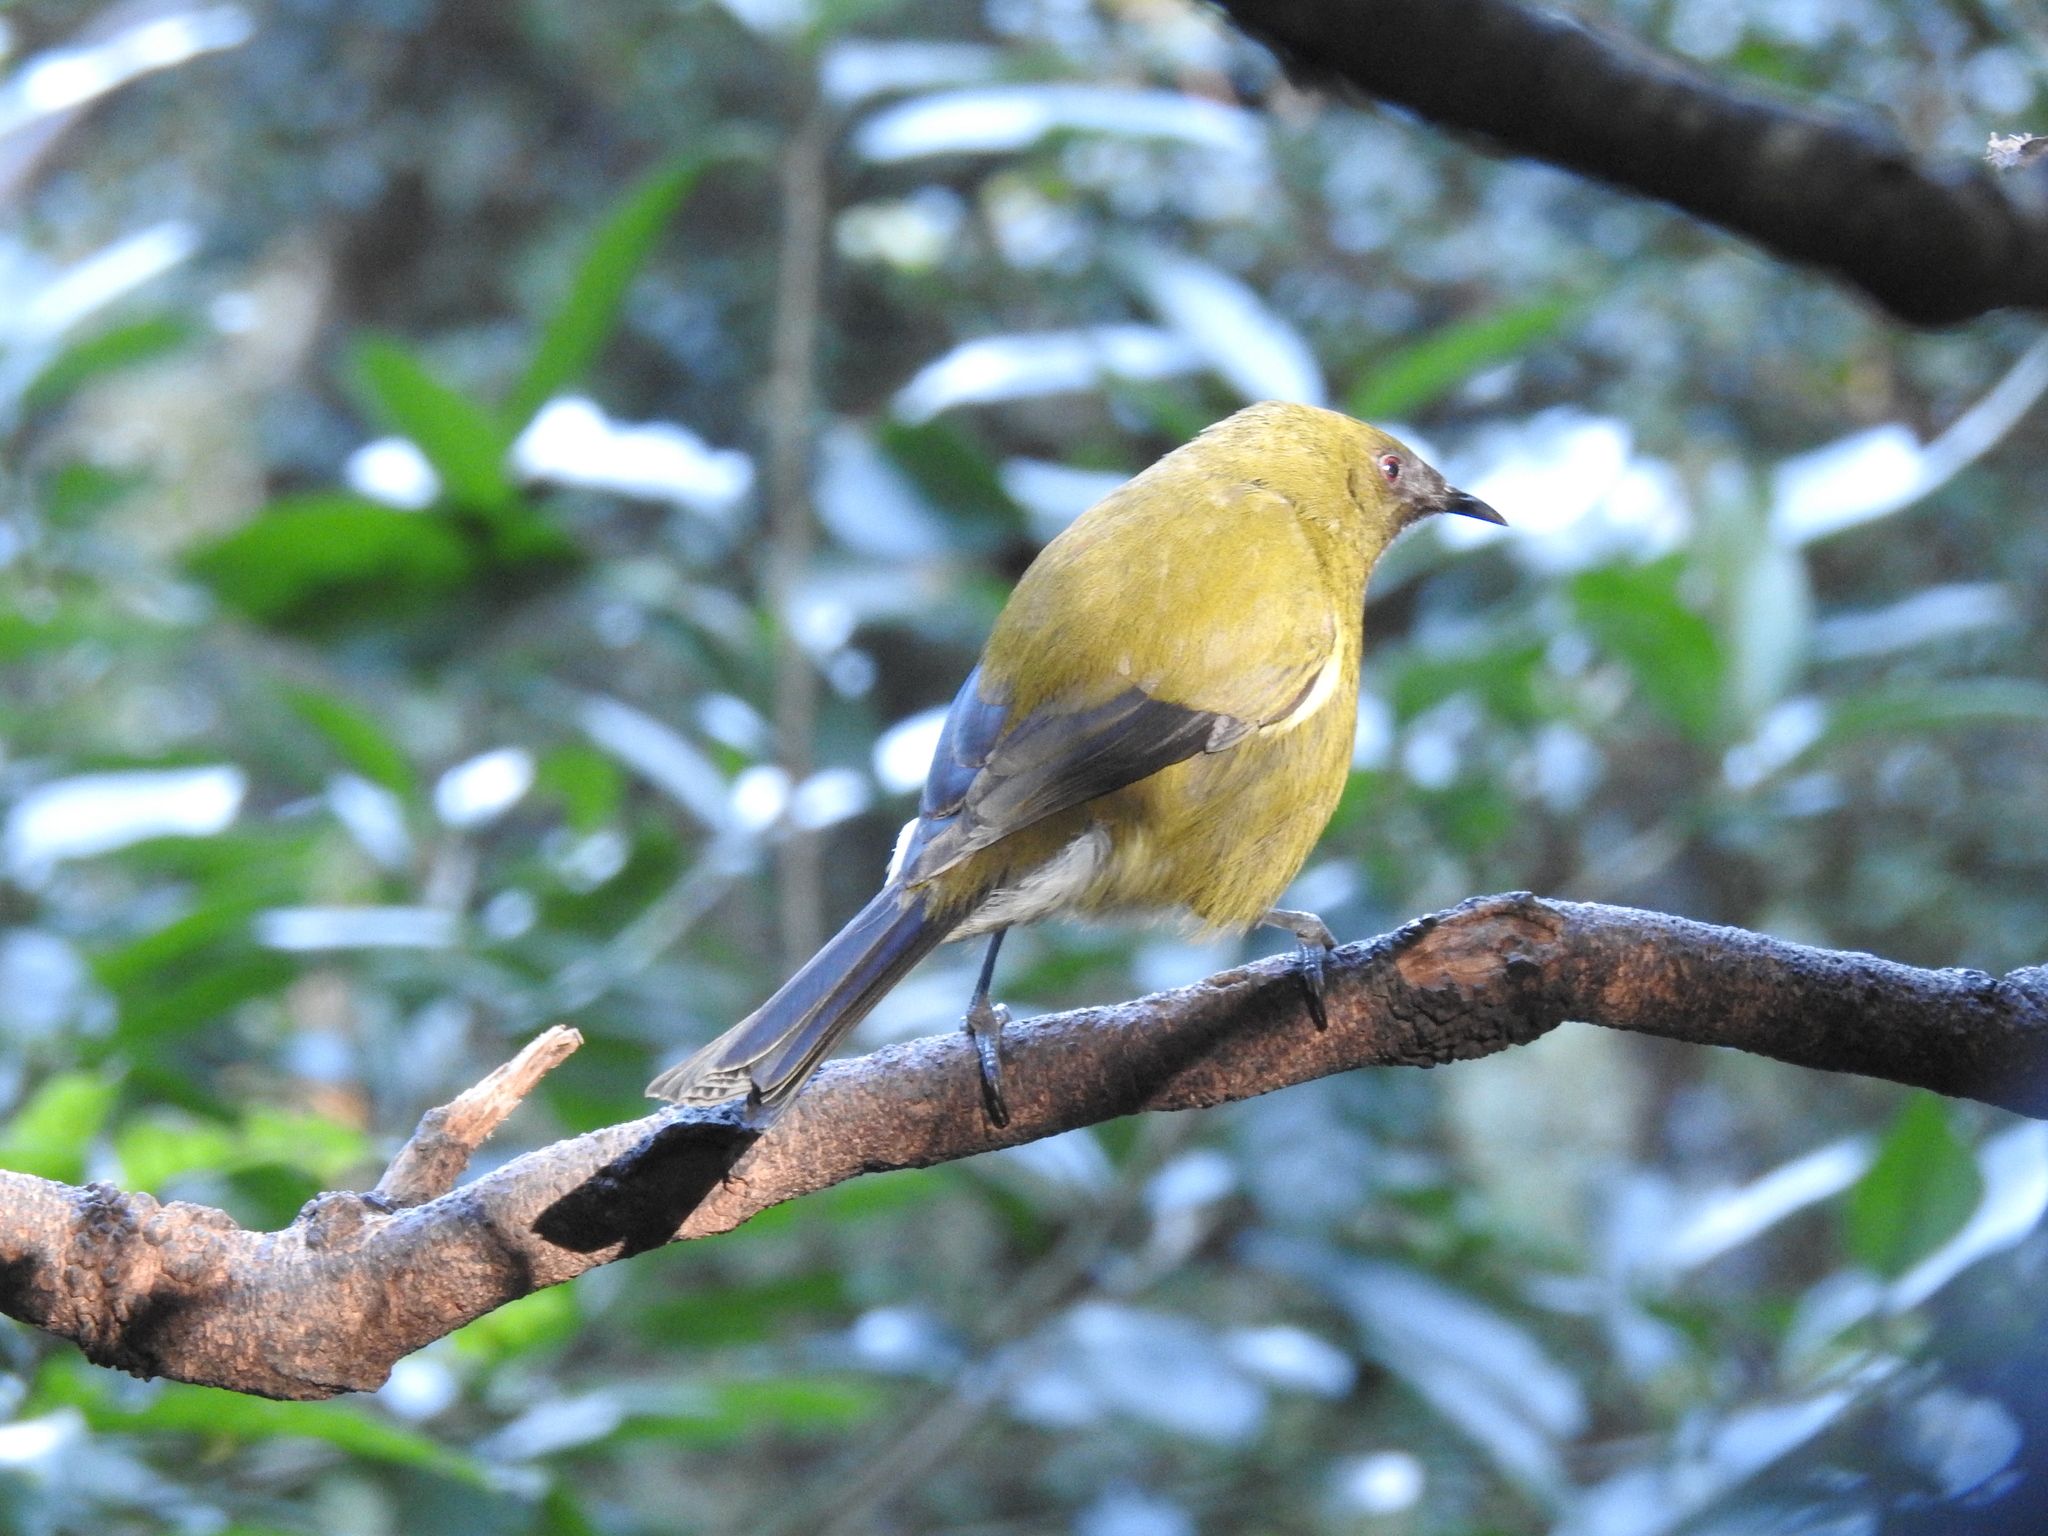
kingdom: Animalia
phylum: Chordata
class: Aves
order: Passeriformes
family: Meliphagidae
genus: Anthornis
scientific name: Anthornis melanura
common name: New zealand bellbird
